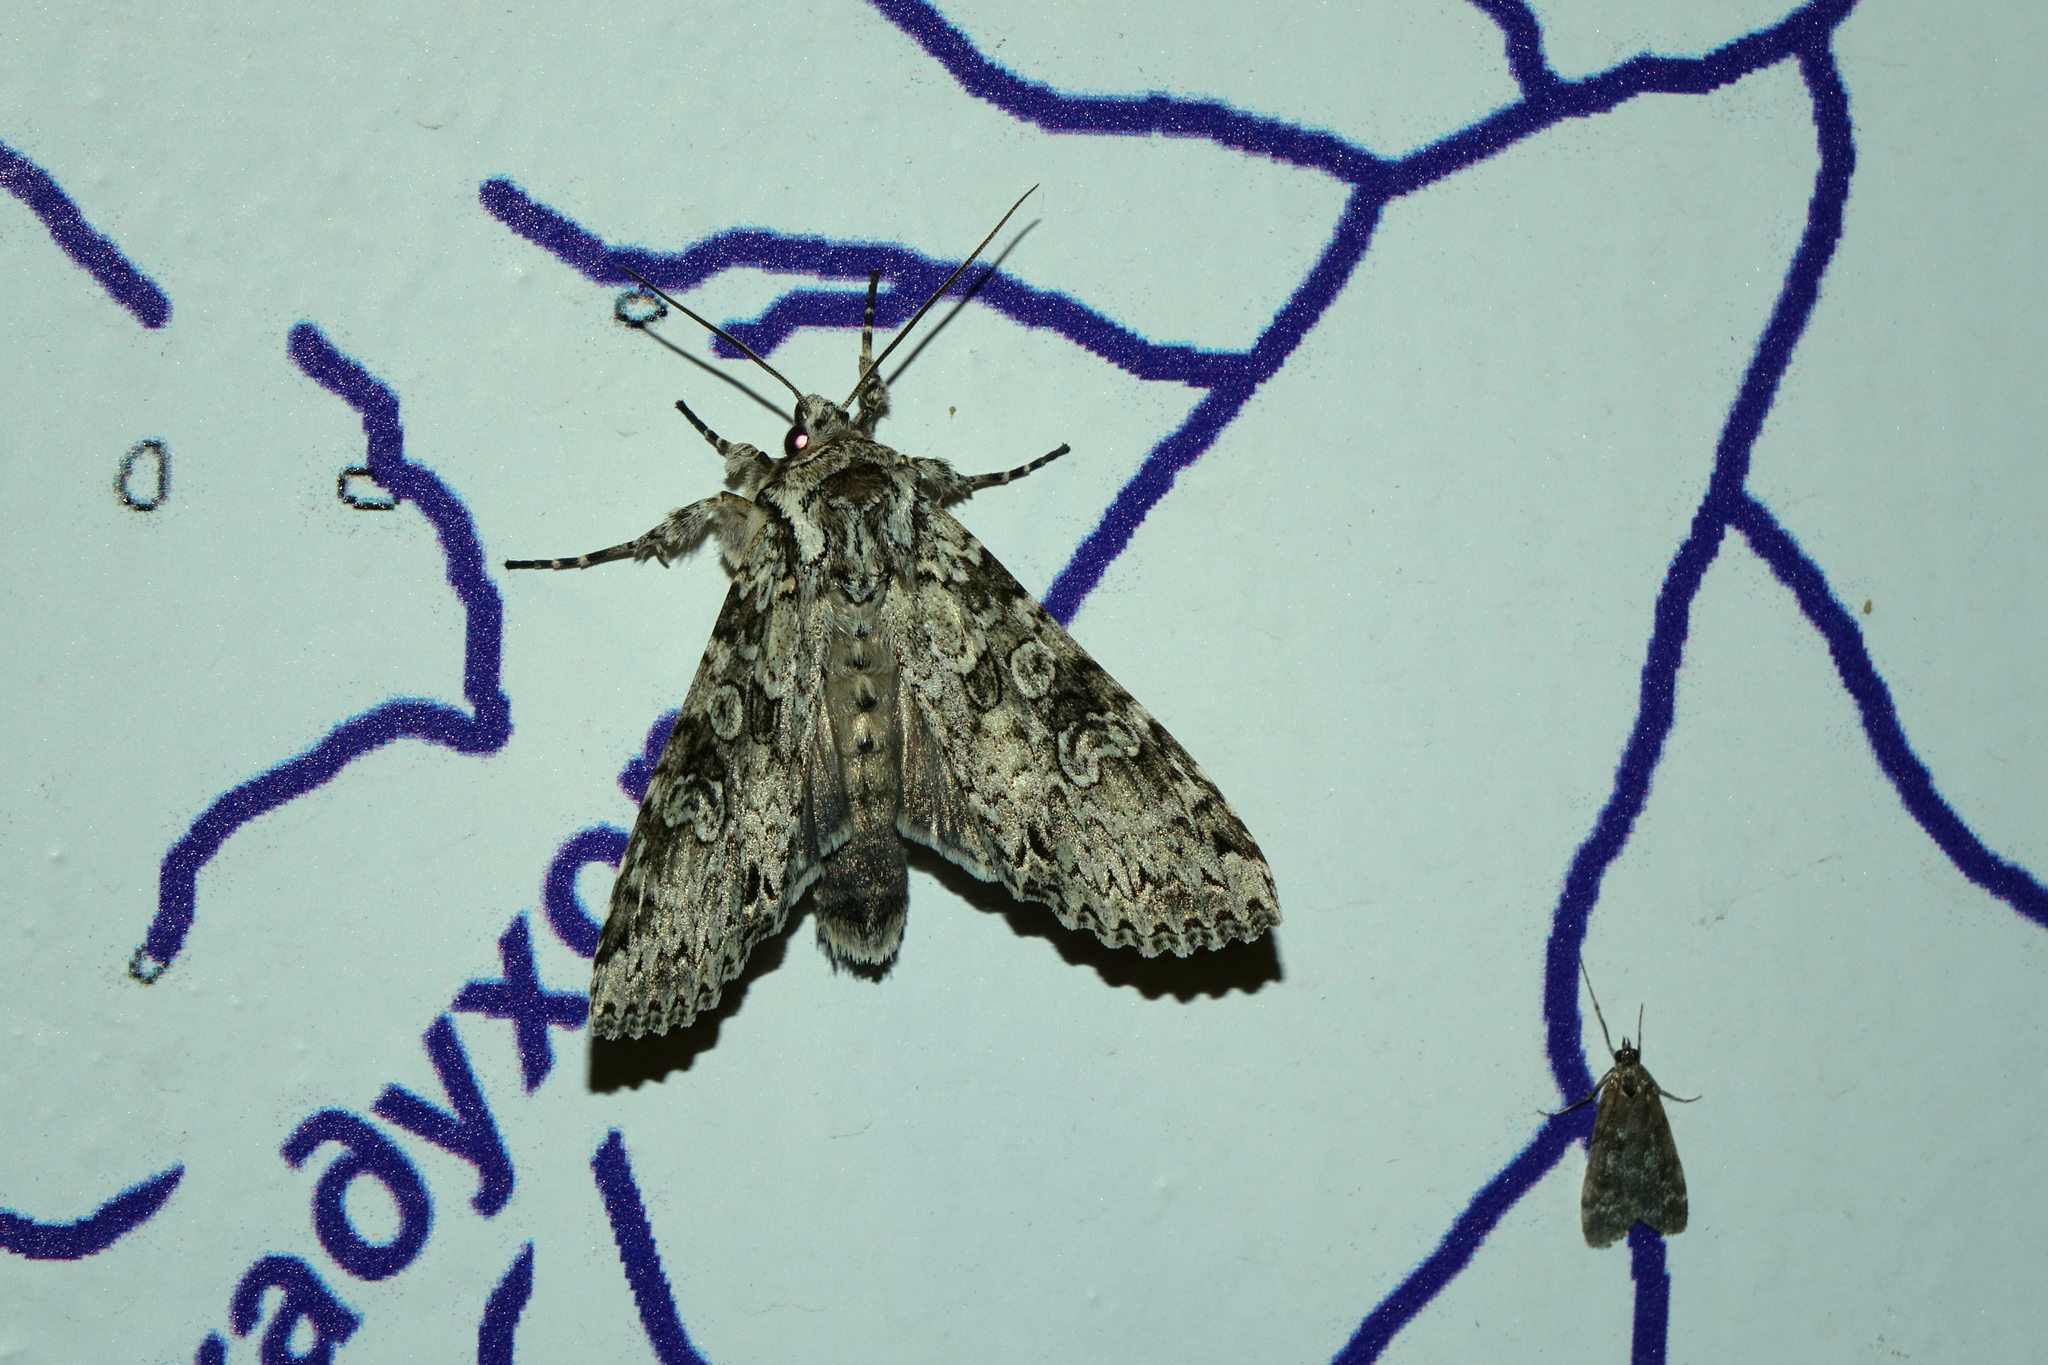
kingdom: Animalia
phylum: Arthropoda
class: Insecta
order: Lepidoptera
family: Noctuidae
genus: Polia
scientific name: Polia nebulosa
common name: Grey arches
